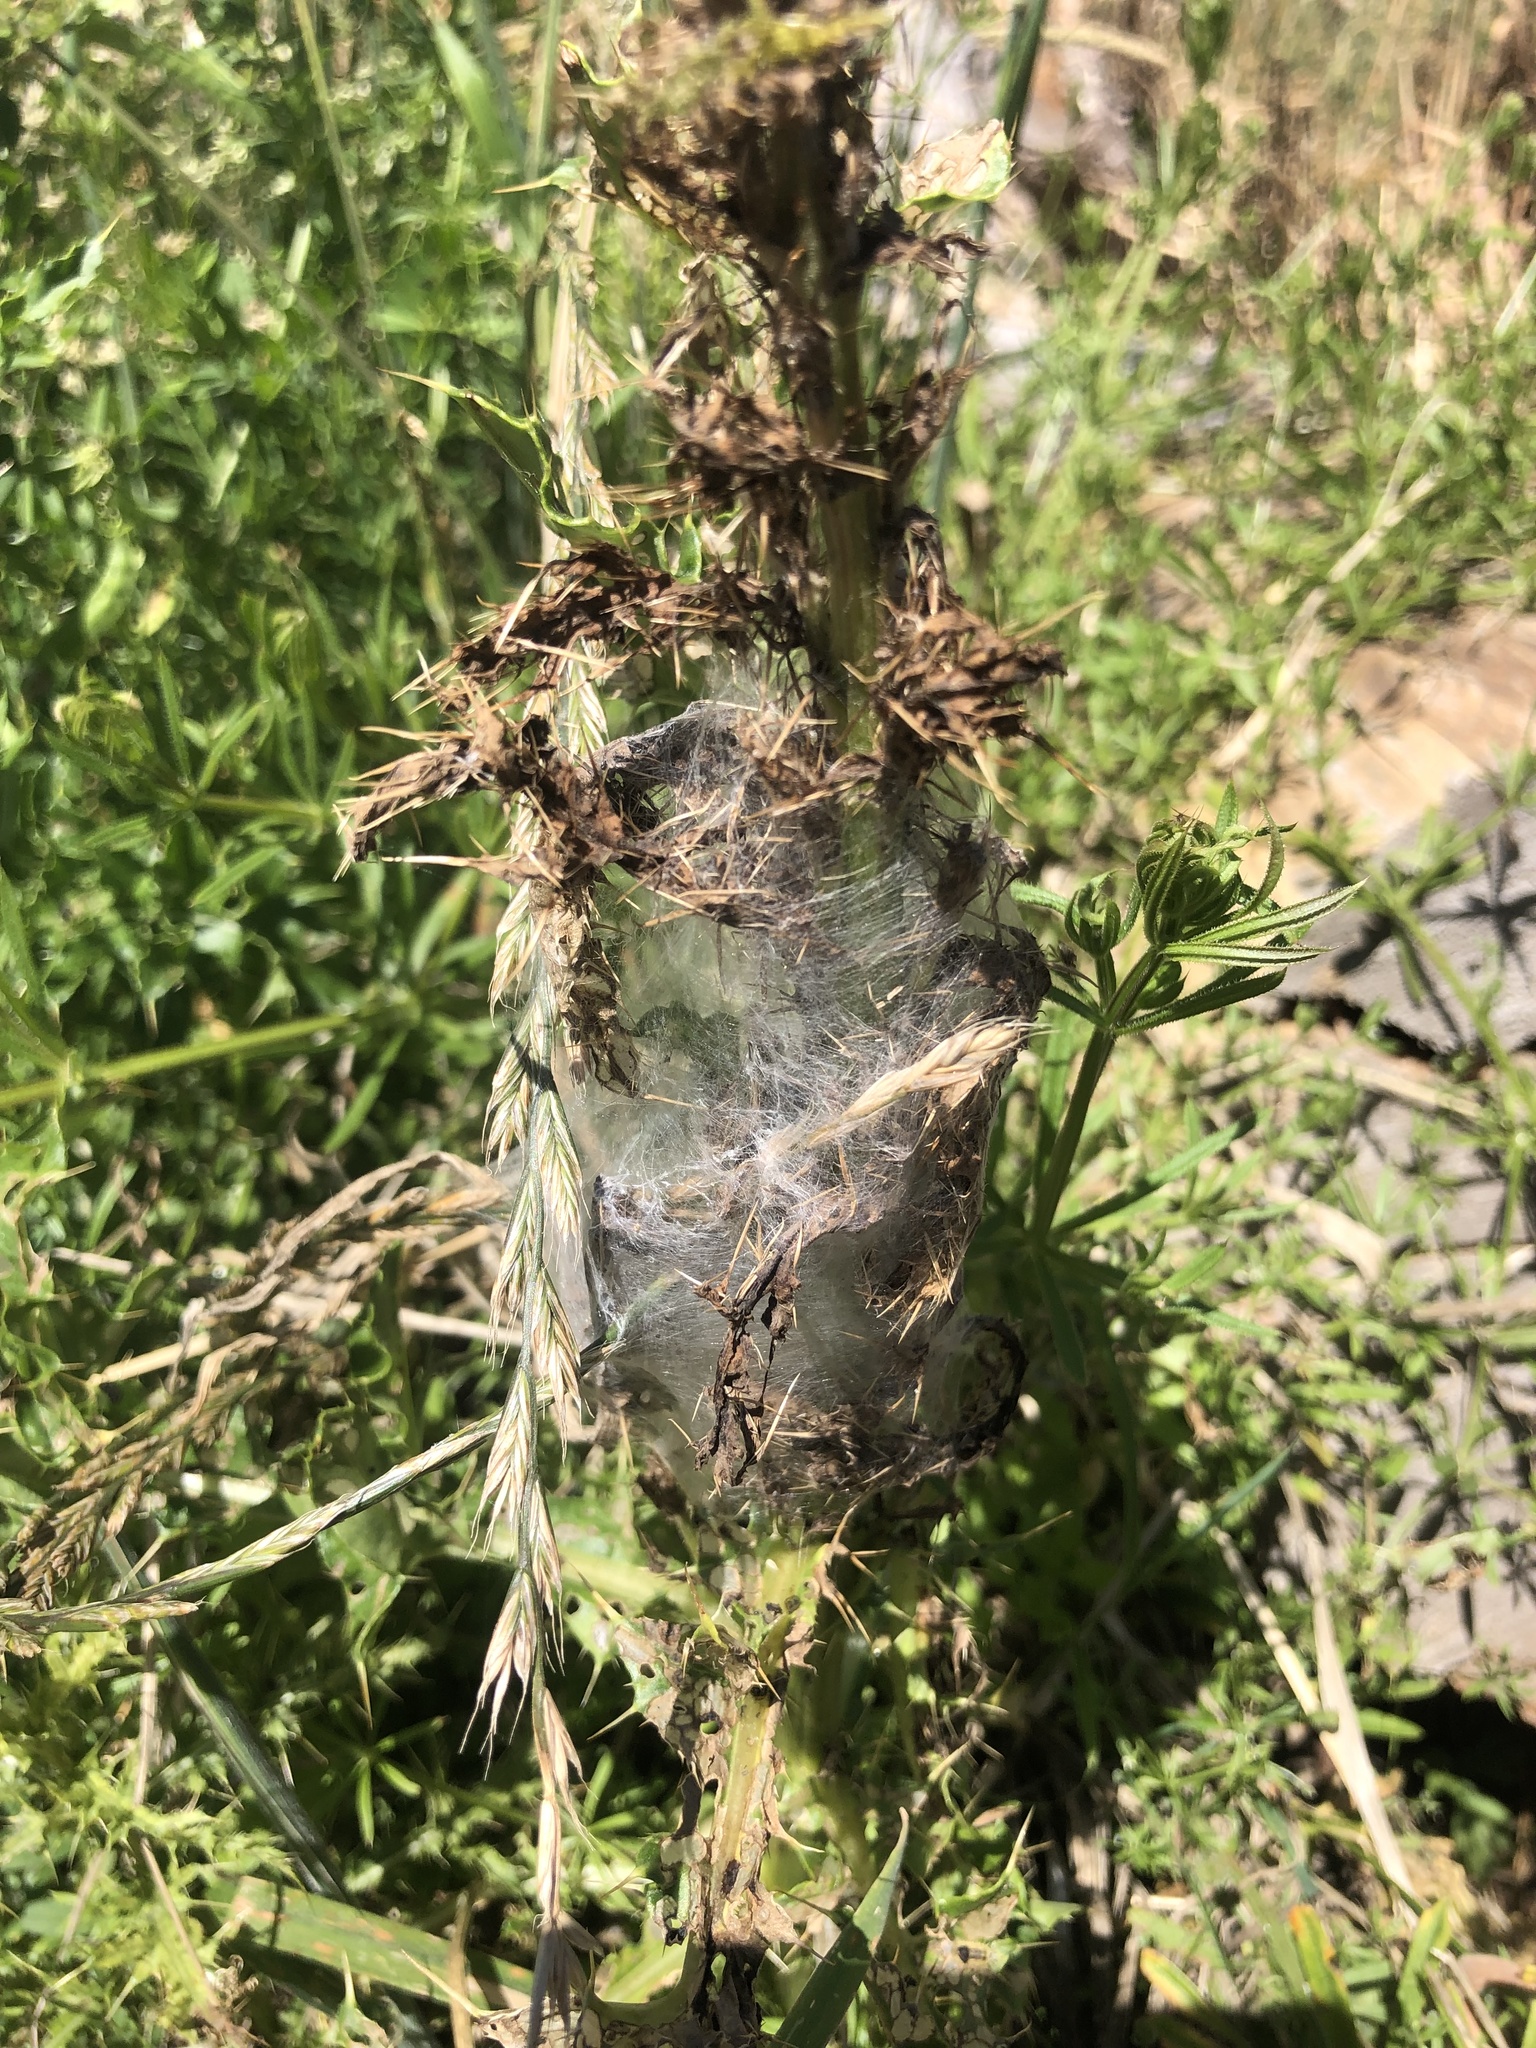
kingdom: Animalia
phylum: Arthropoda
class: Arachnida
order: Araneae
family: Pisauridae
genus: Dolomedes
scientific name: Dolomedes minor
